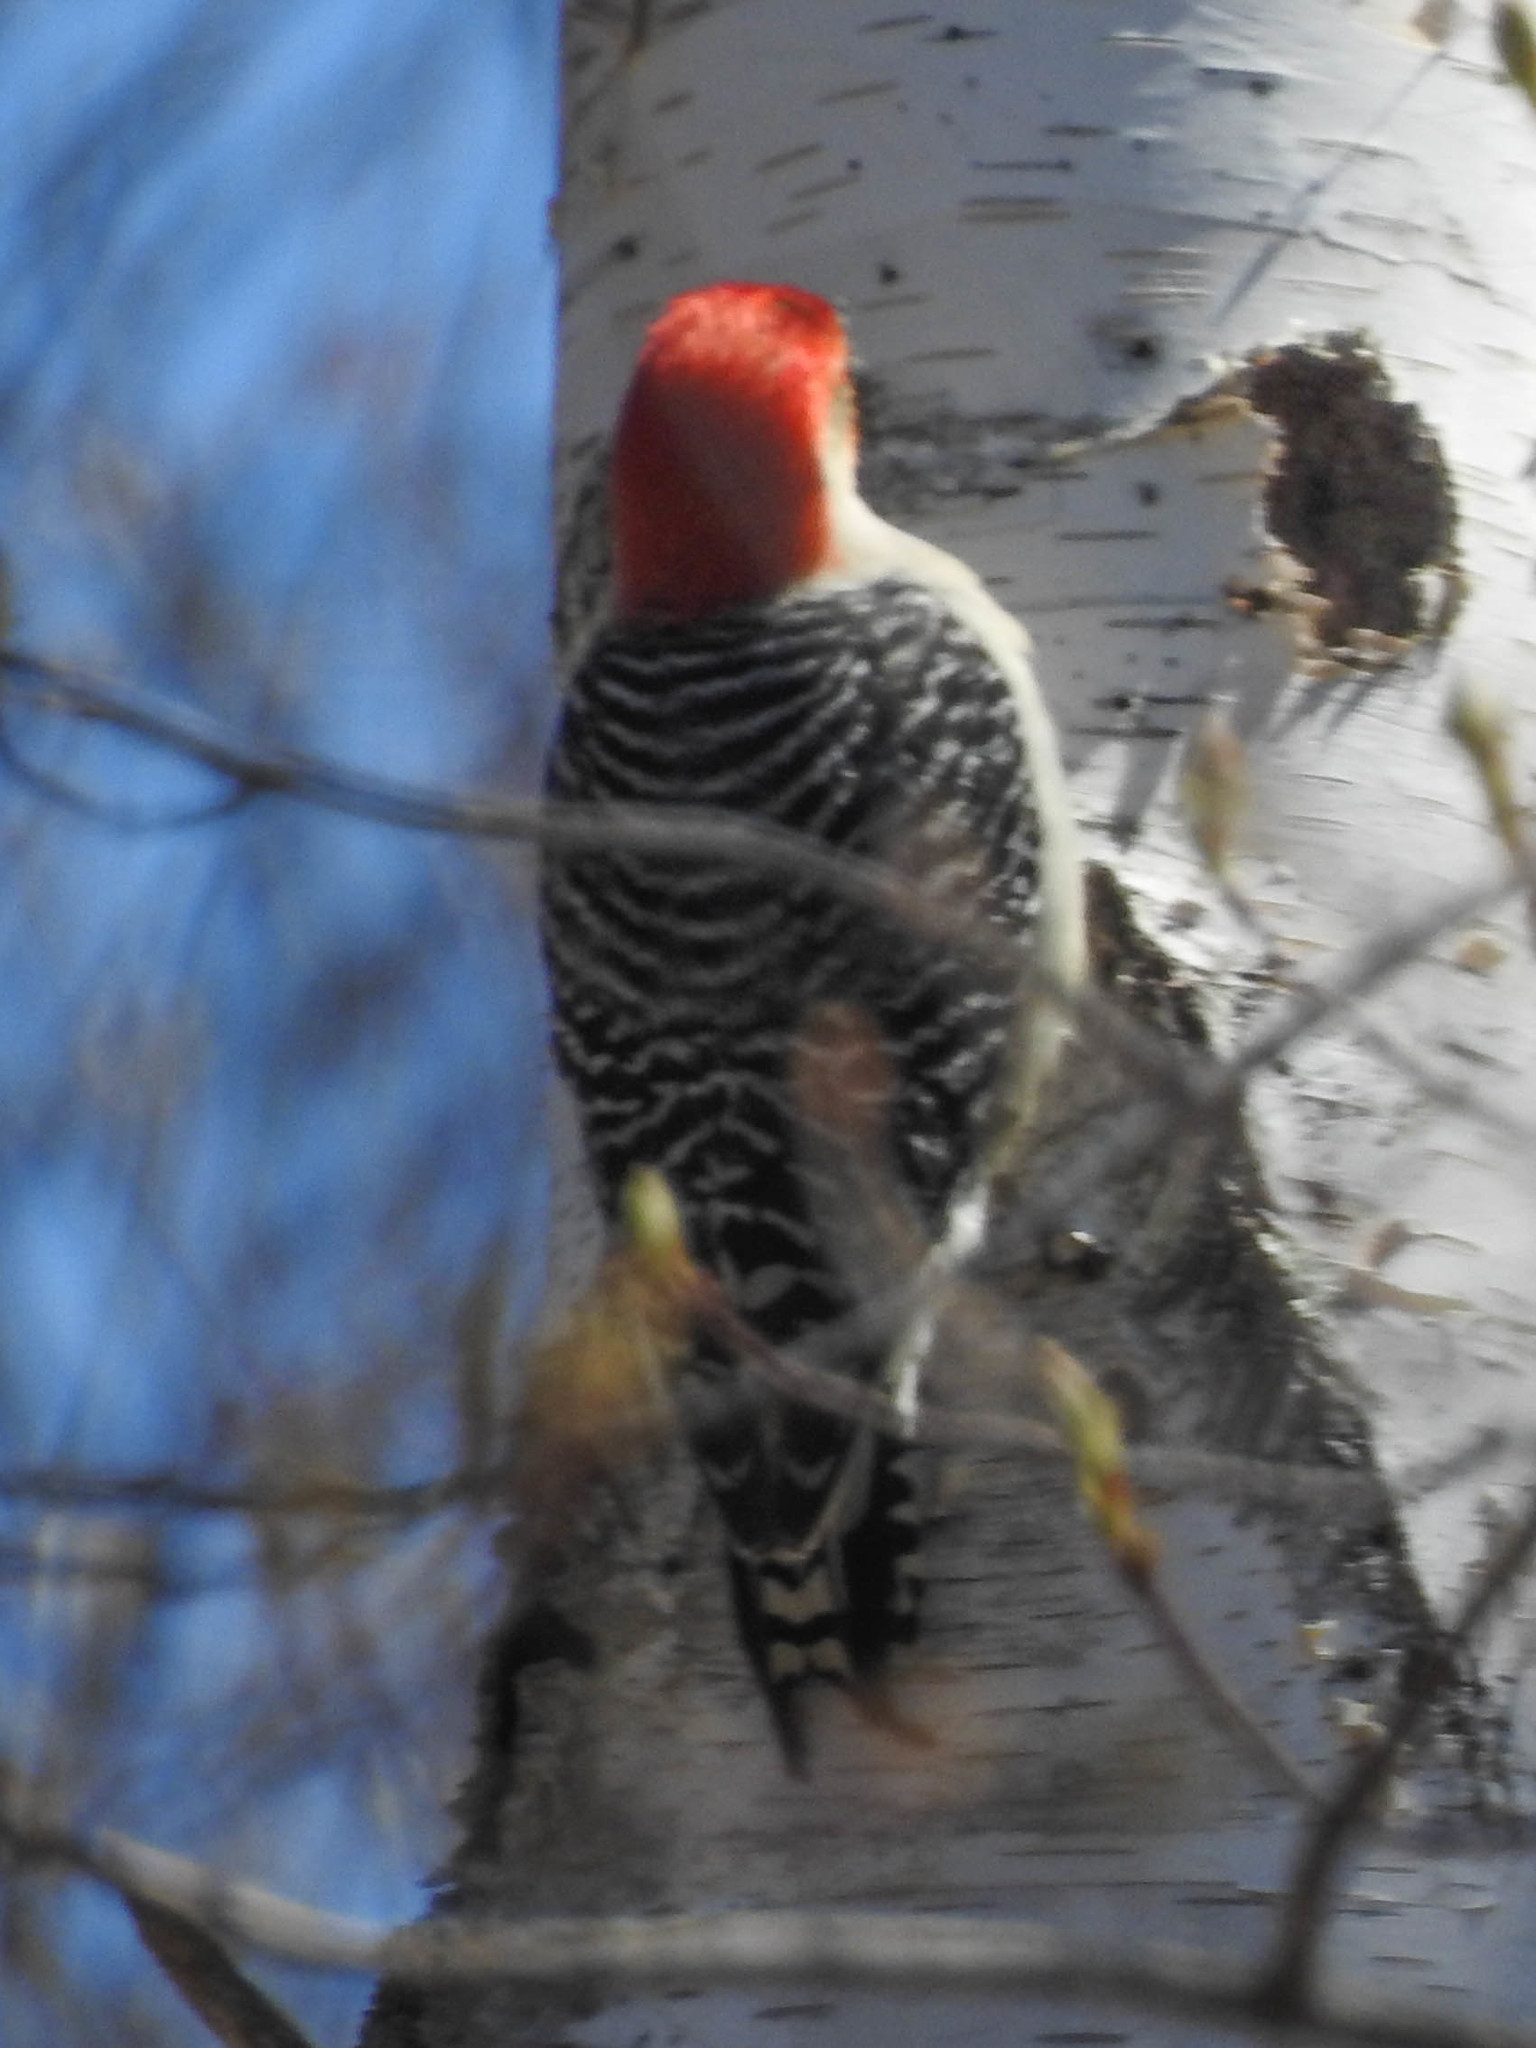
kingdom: Animalia
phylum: Chordata
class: Aves
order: Piciformes
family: Picidae
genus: Melanerpes
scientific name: Melanerpes carolinus
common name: Red-bellied woodpecker
